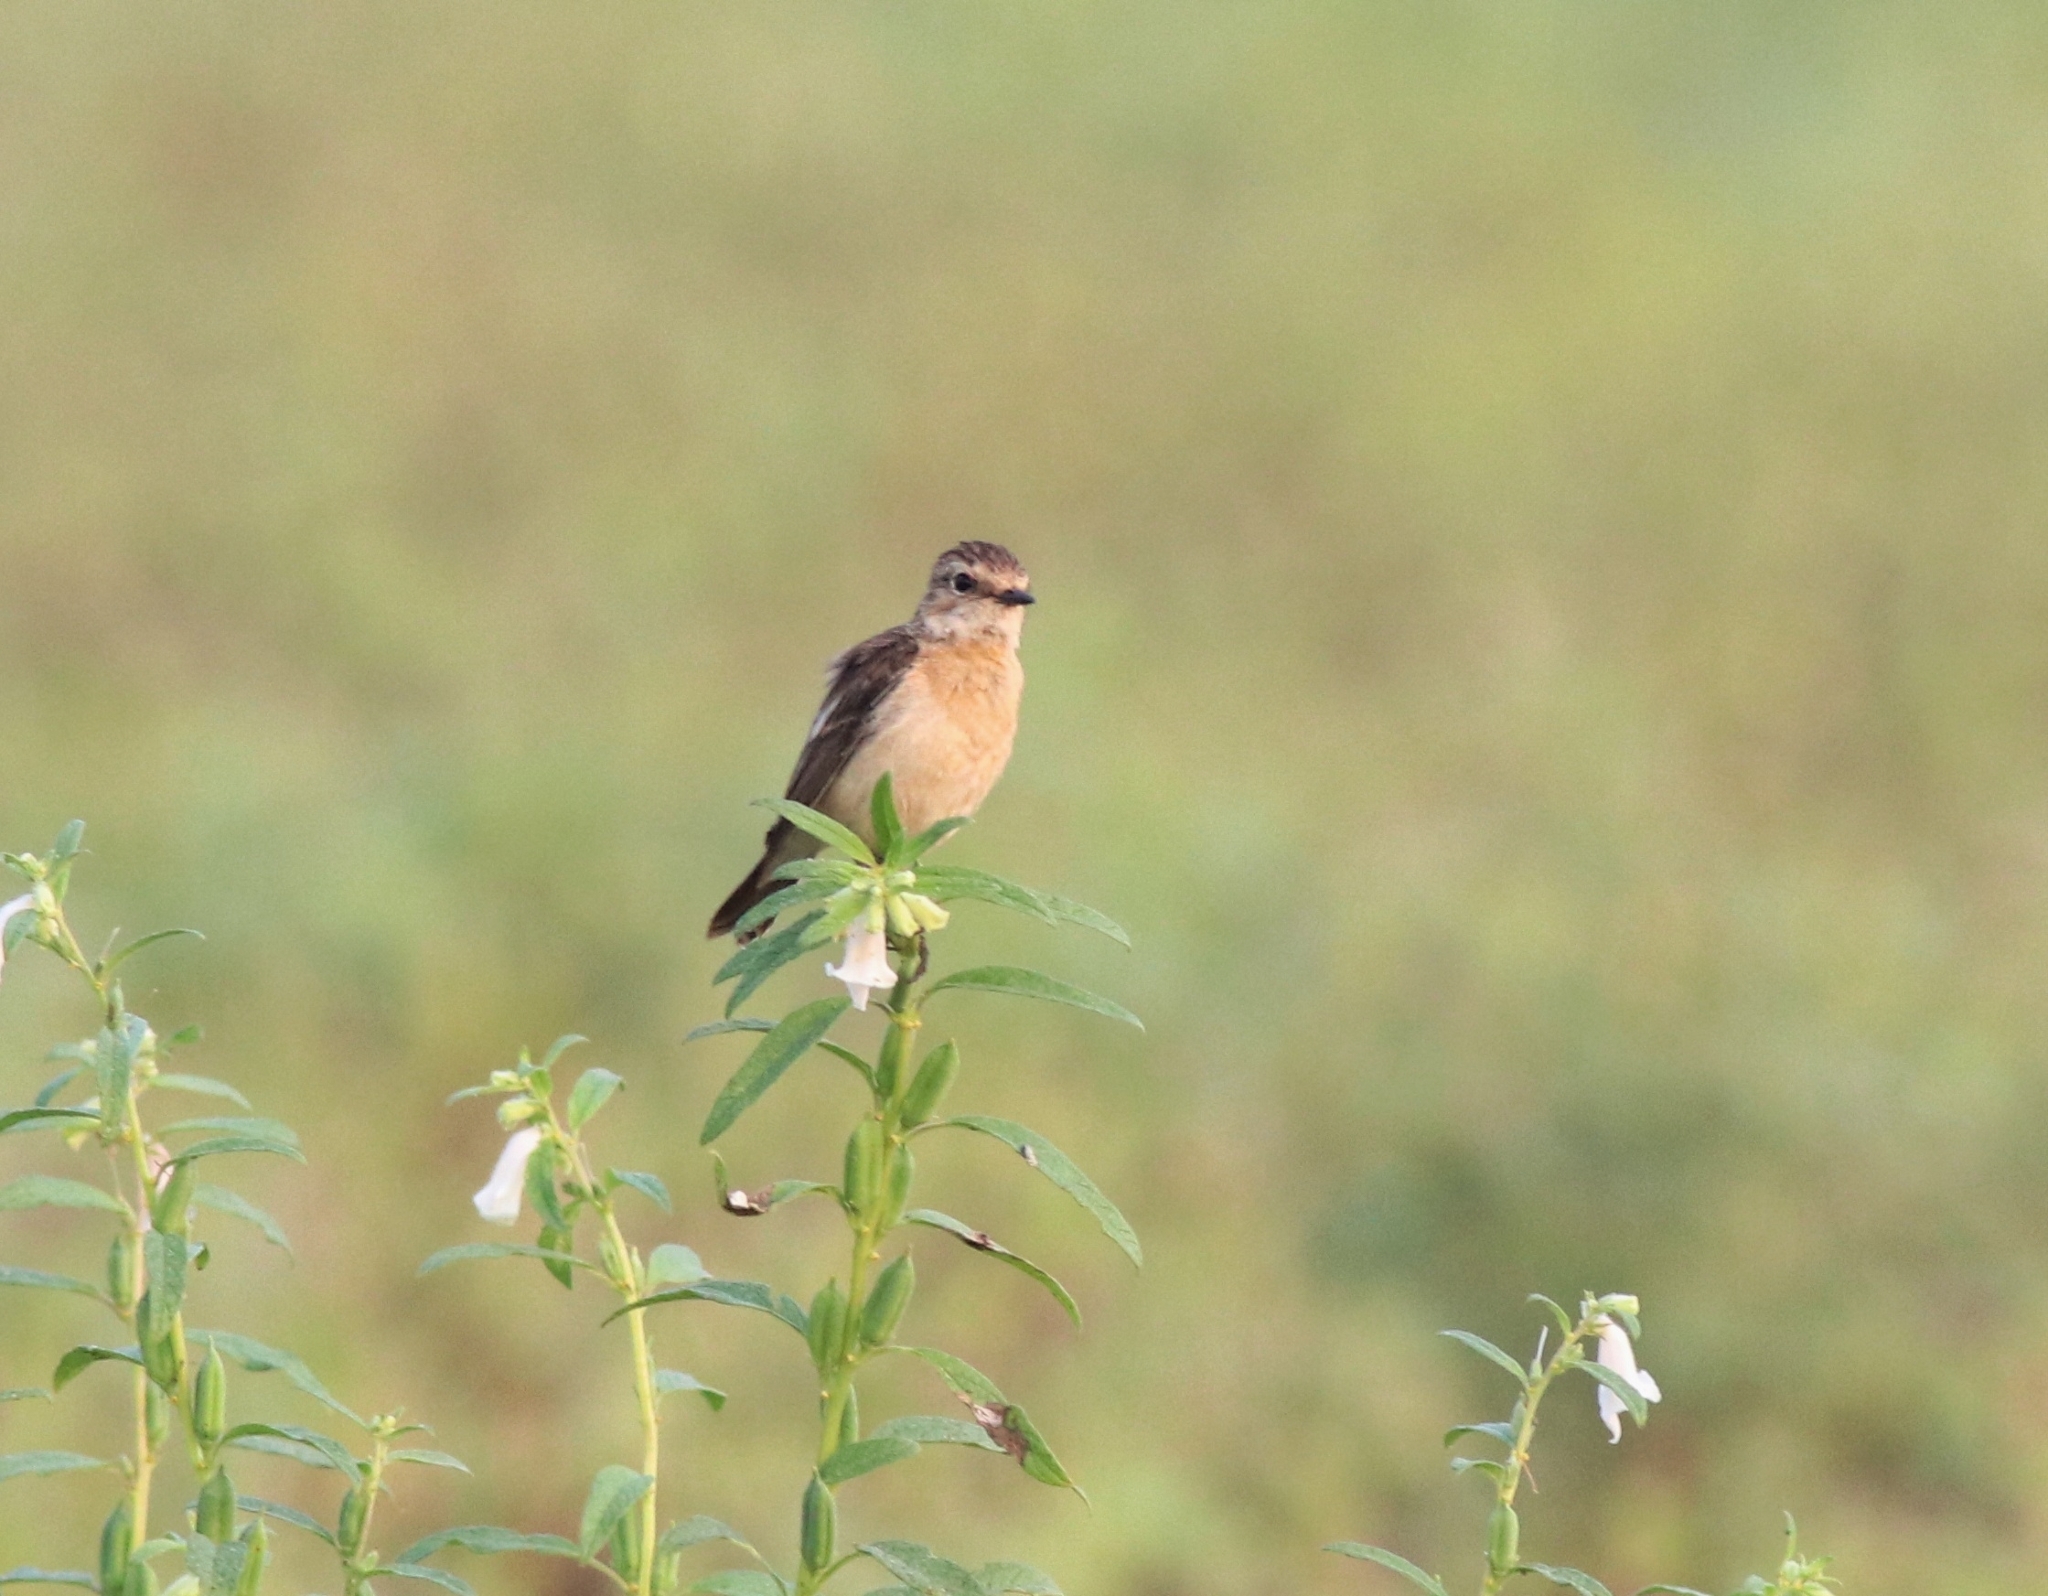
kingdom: Animalia
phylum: Chordata
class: Aves
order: Passeriformes
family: Muscicapidae
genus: Saxicola
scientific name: Saxicola maurus
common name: Siberian stonechat
